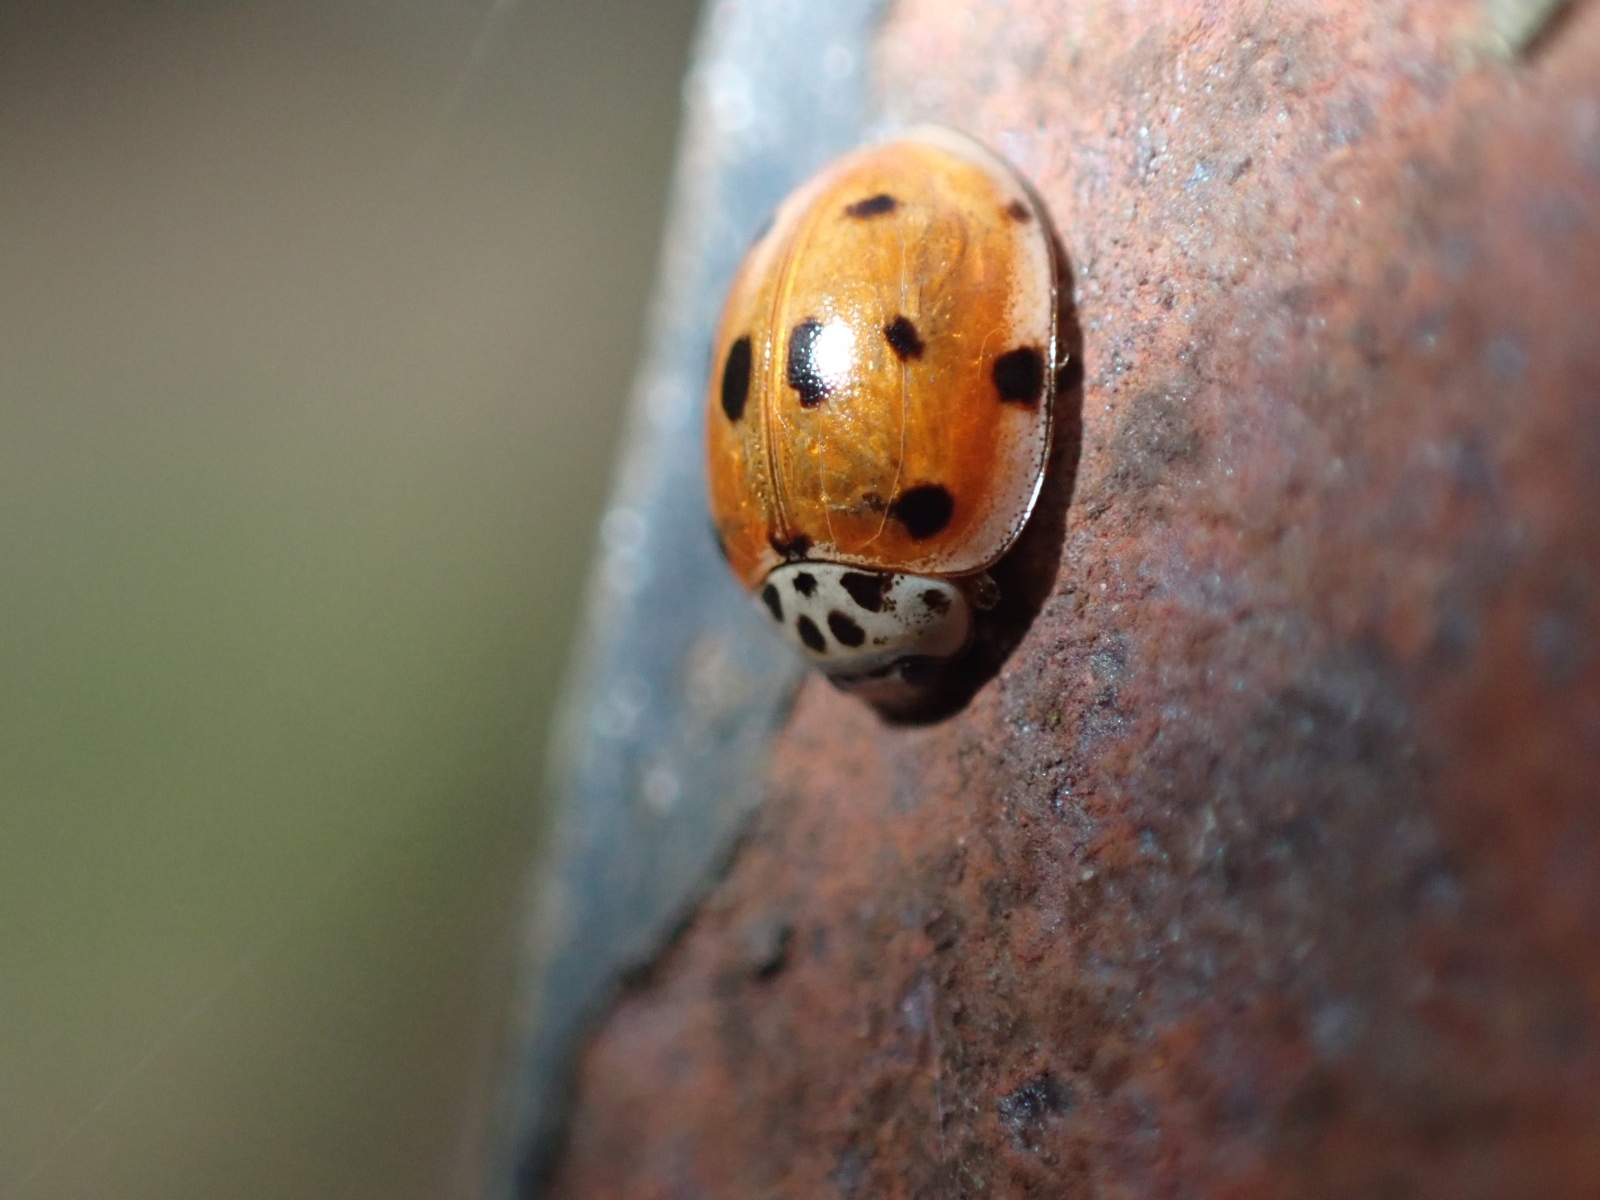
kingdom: Animalia
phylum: Arthropoda
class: Insecta
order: Coleoptera
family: Coccinellidae
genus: Adalia
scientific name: Adalia decempunctata
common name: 10-spot ladybird
